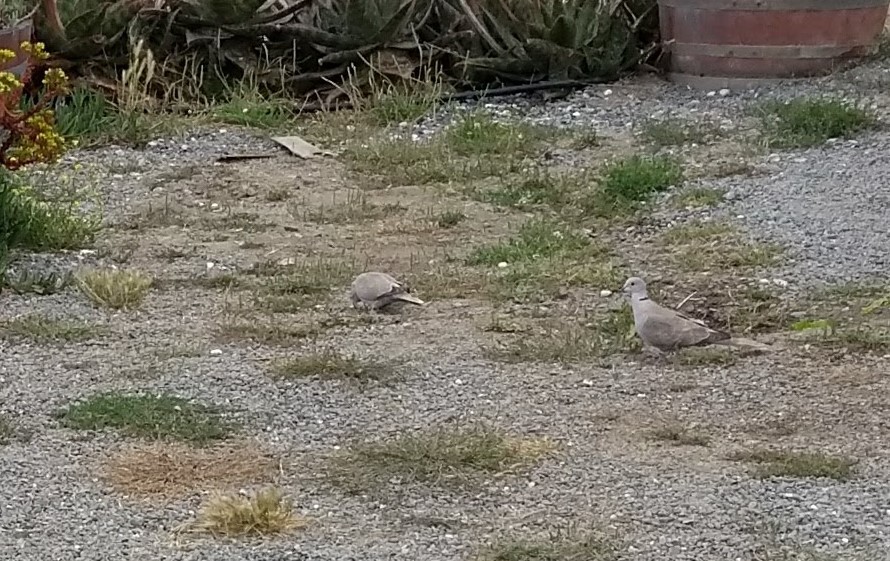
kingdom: Animalia
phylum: Chordata
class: Aves
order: Columbiformes
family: Columbidae
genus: Streptopelia
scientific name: Streptopelia decaocto
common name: Eurasian collared dove
